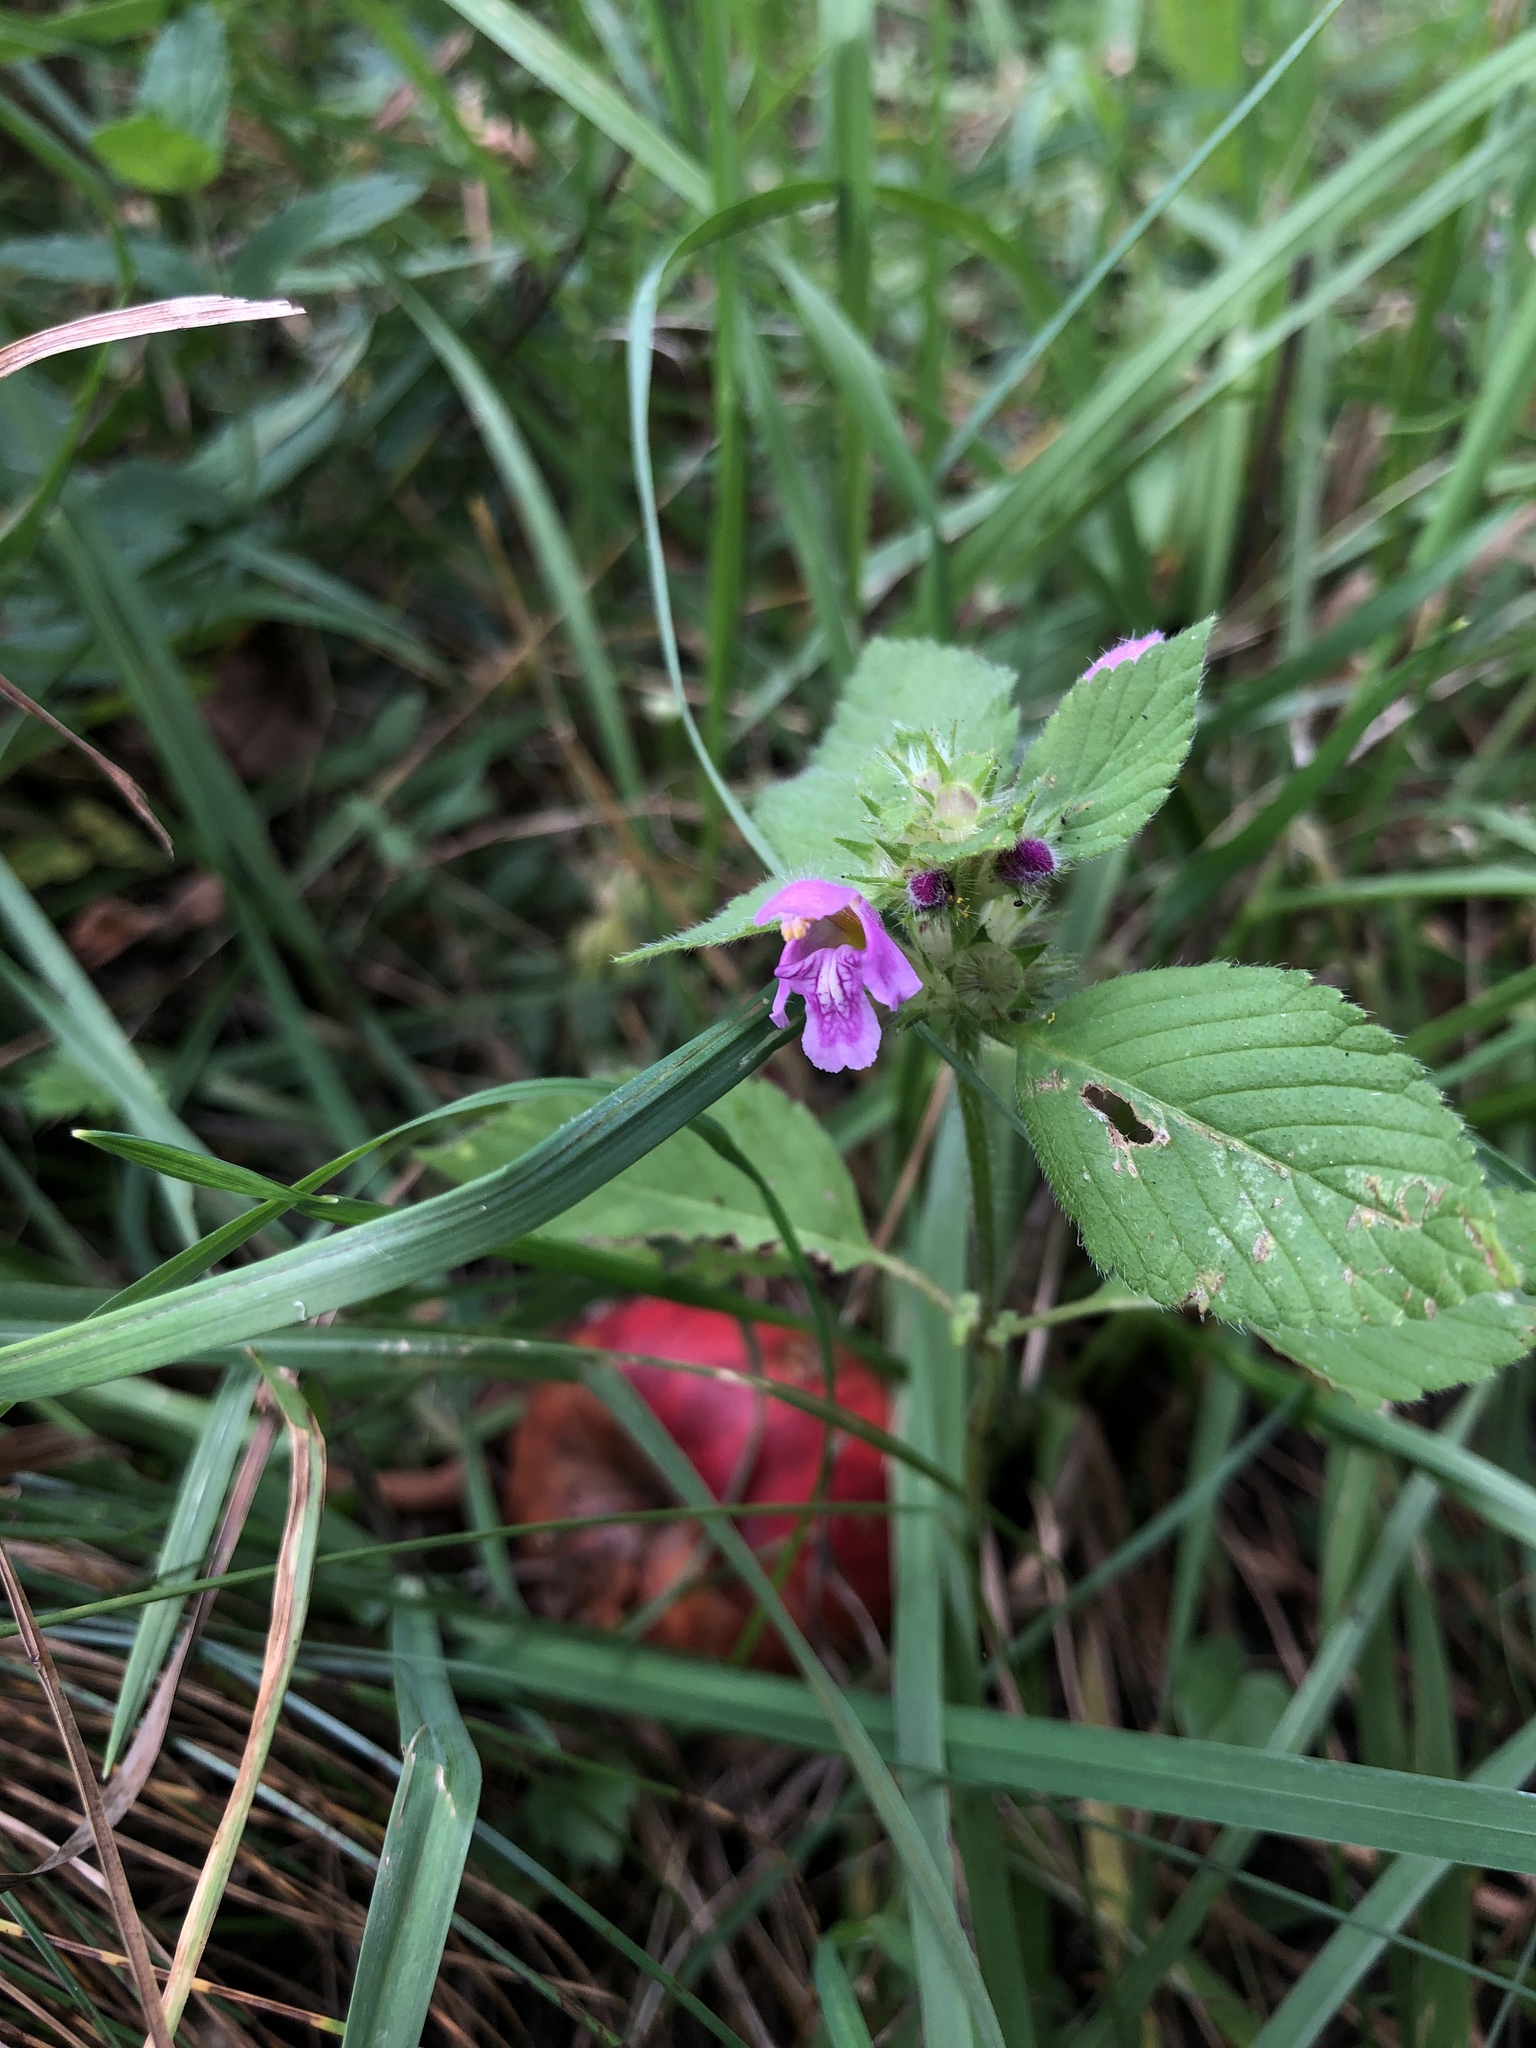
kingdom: Plantae
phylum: Tracheophyta
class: Magnoliopsida
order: Lamiales
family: Lamiaceae
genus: Galeopsis
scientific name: Galeopsis tetrahit
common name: Common hemp-nettle
